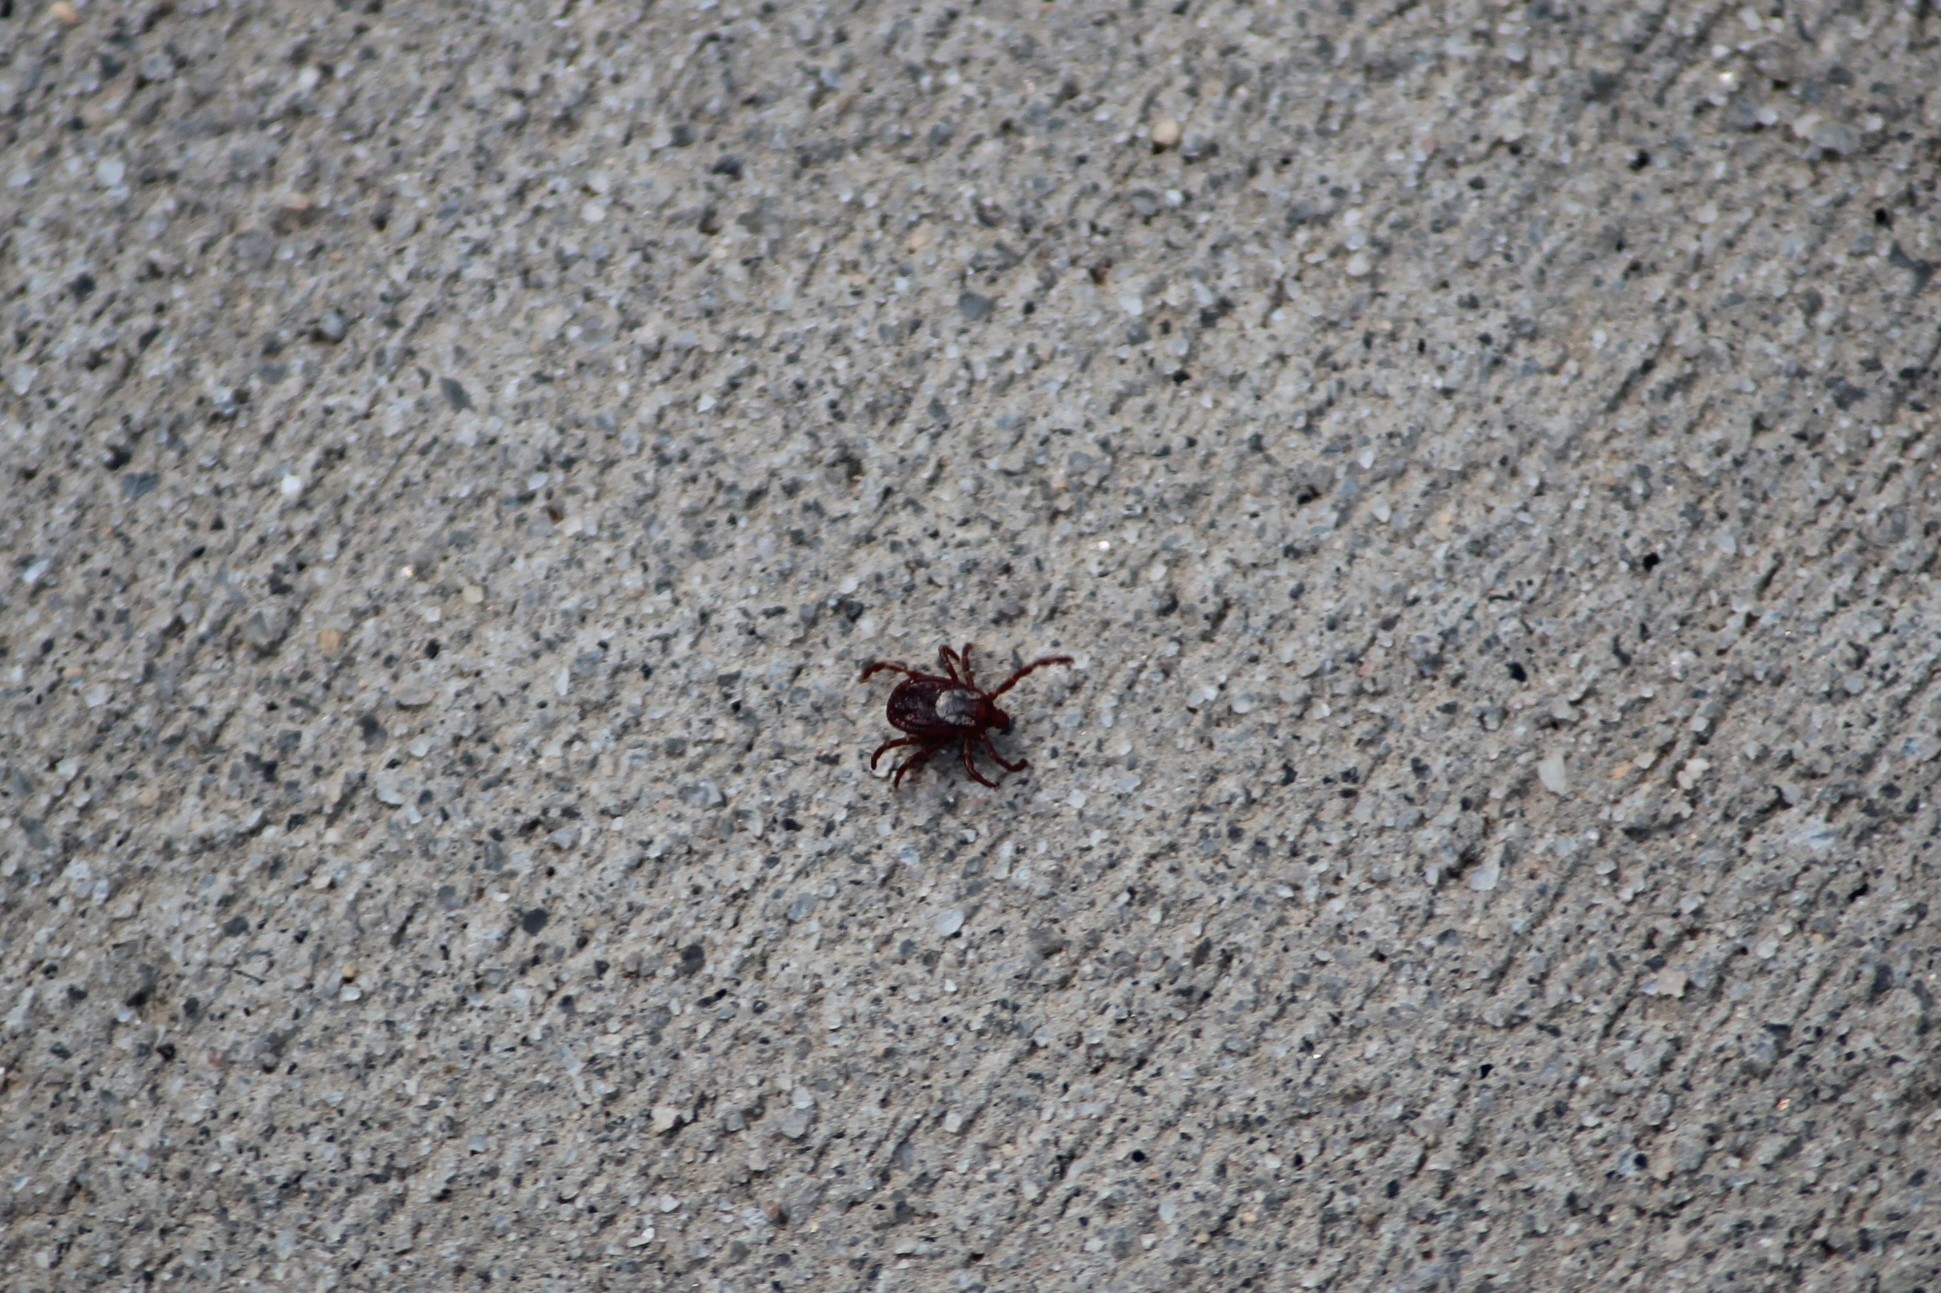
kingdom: Animalia
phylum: Arthropoda
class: Arachnida
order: Ixodida
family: Ixodidae
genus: Dermacentor
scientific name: Dermacentor variabilis
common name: American dog tick
